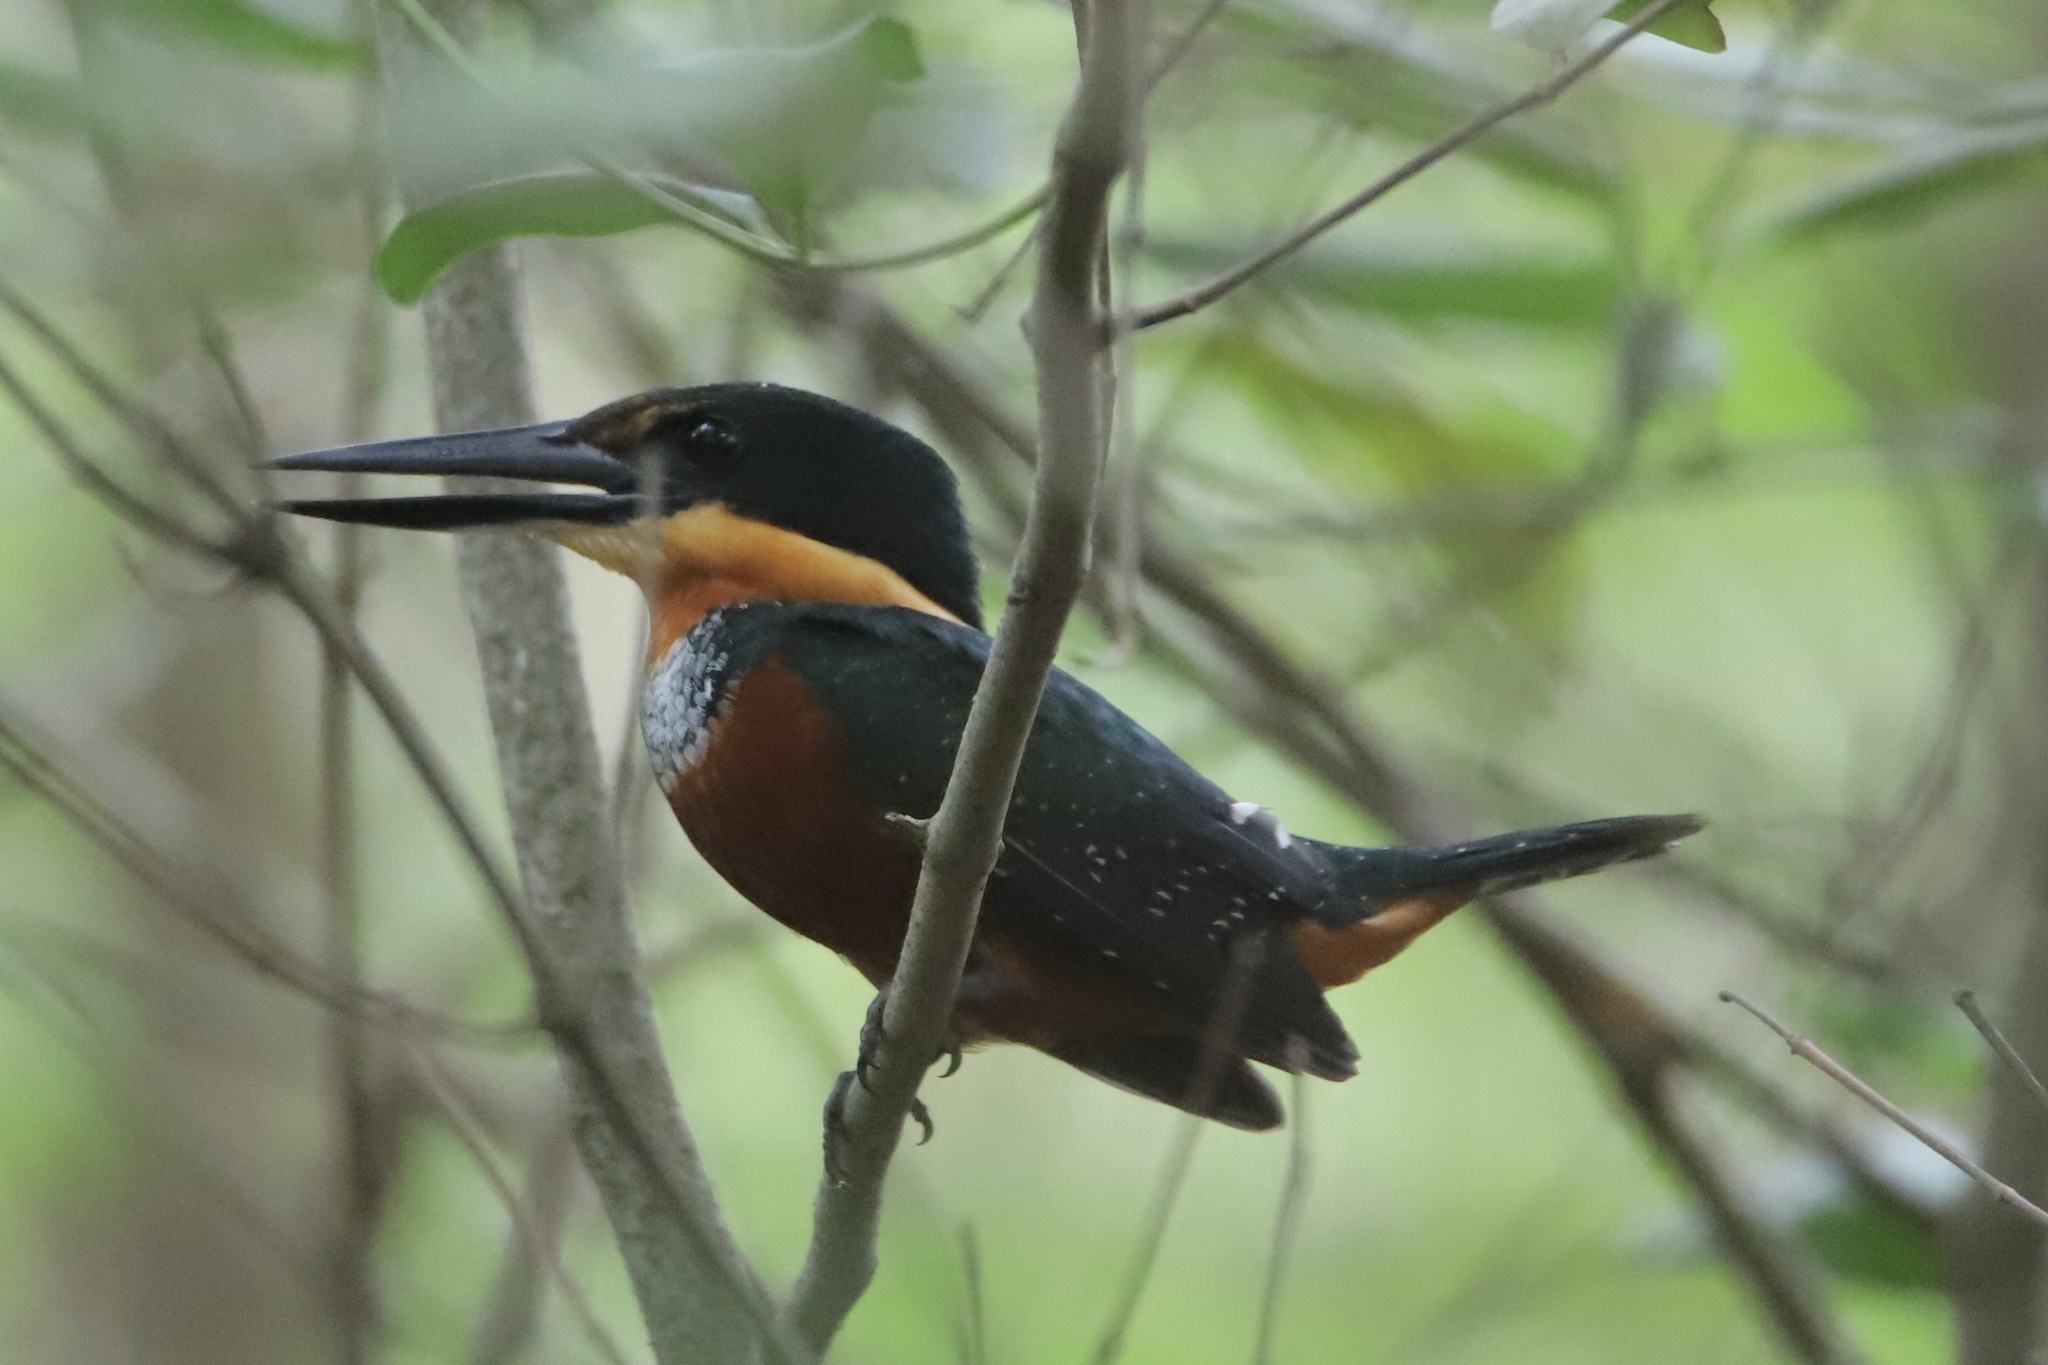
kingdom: Animalia
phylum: Chordata
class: Aves
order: Coraciiformes
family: Alcedinidae
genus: Chloroceryle
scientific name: Chloroceryle inda
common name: Green-and-rufous kingfisher
